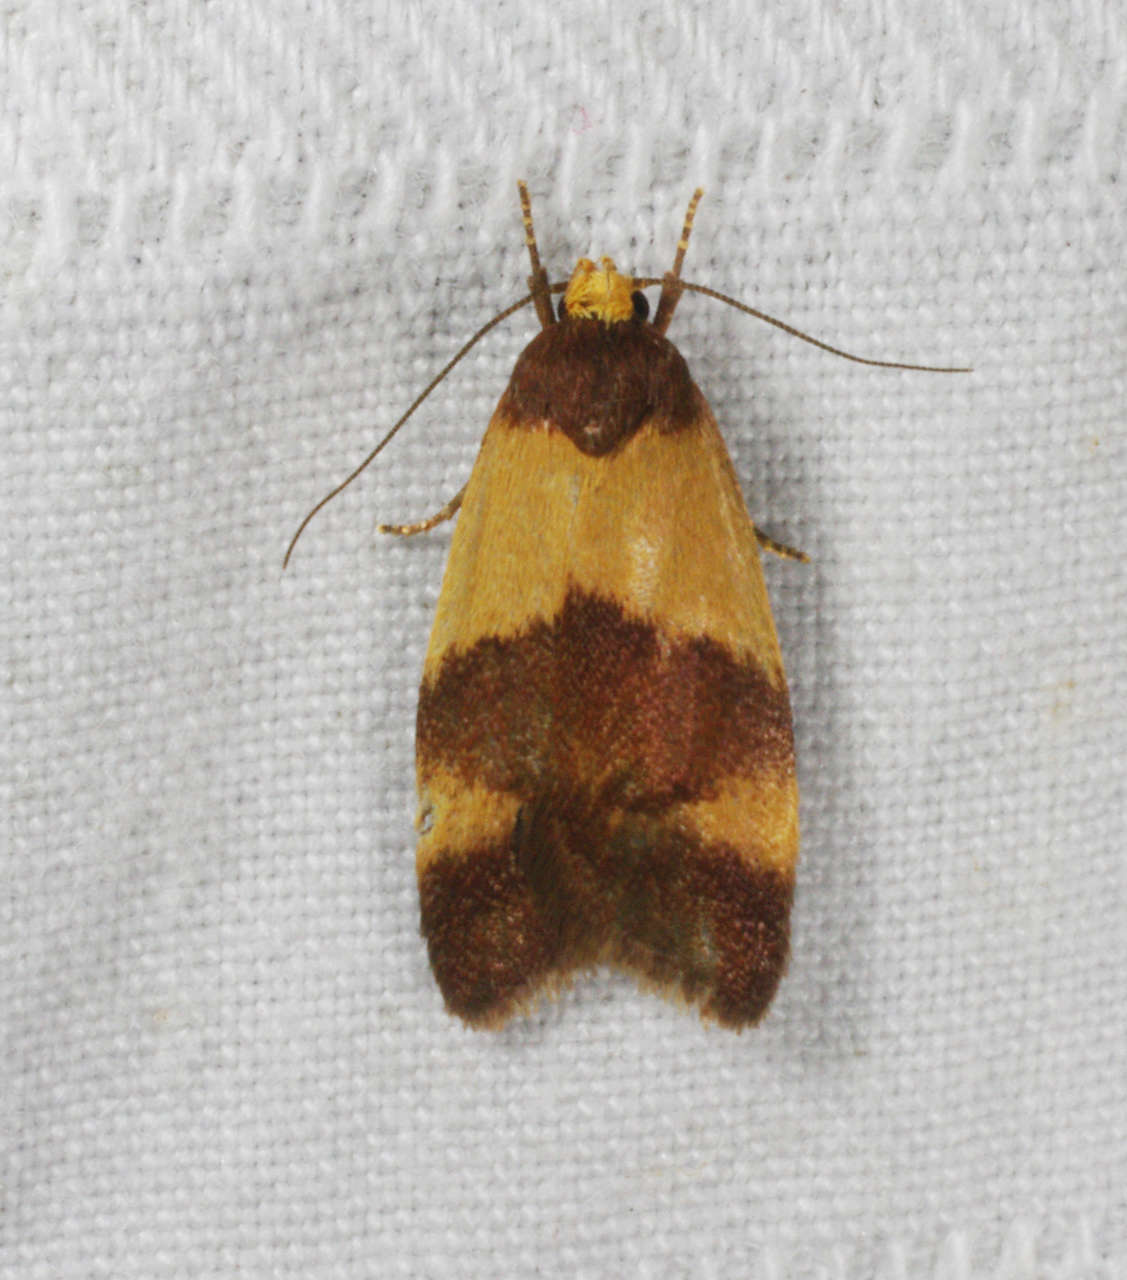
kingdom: Animalia
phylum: Arthropoda
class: Insecta
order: Lepidoptera
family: Oecophoridae
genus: Eochrois
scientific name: Eochrois epidesma
